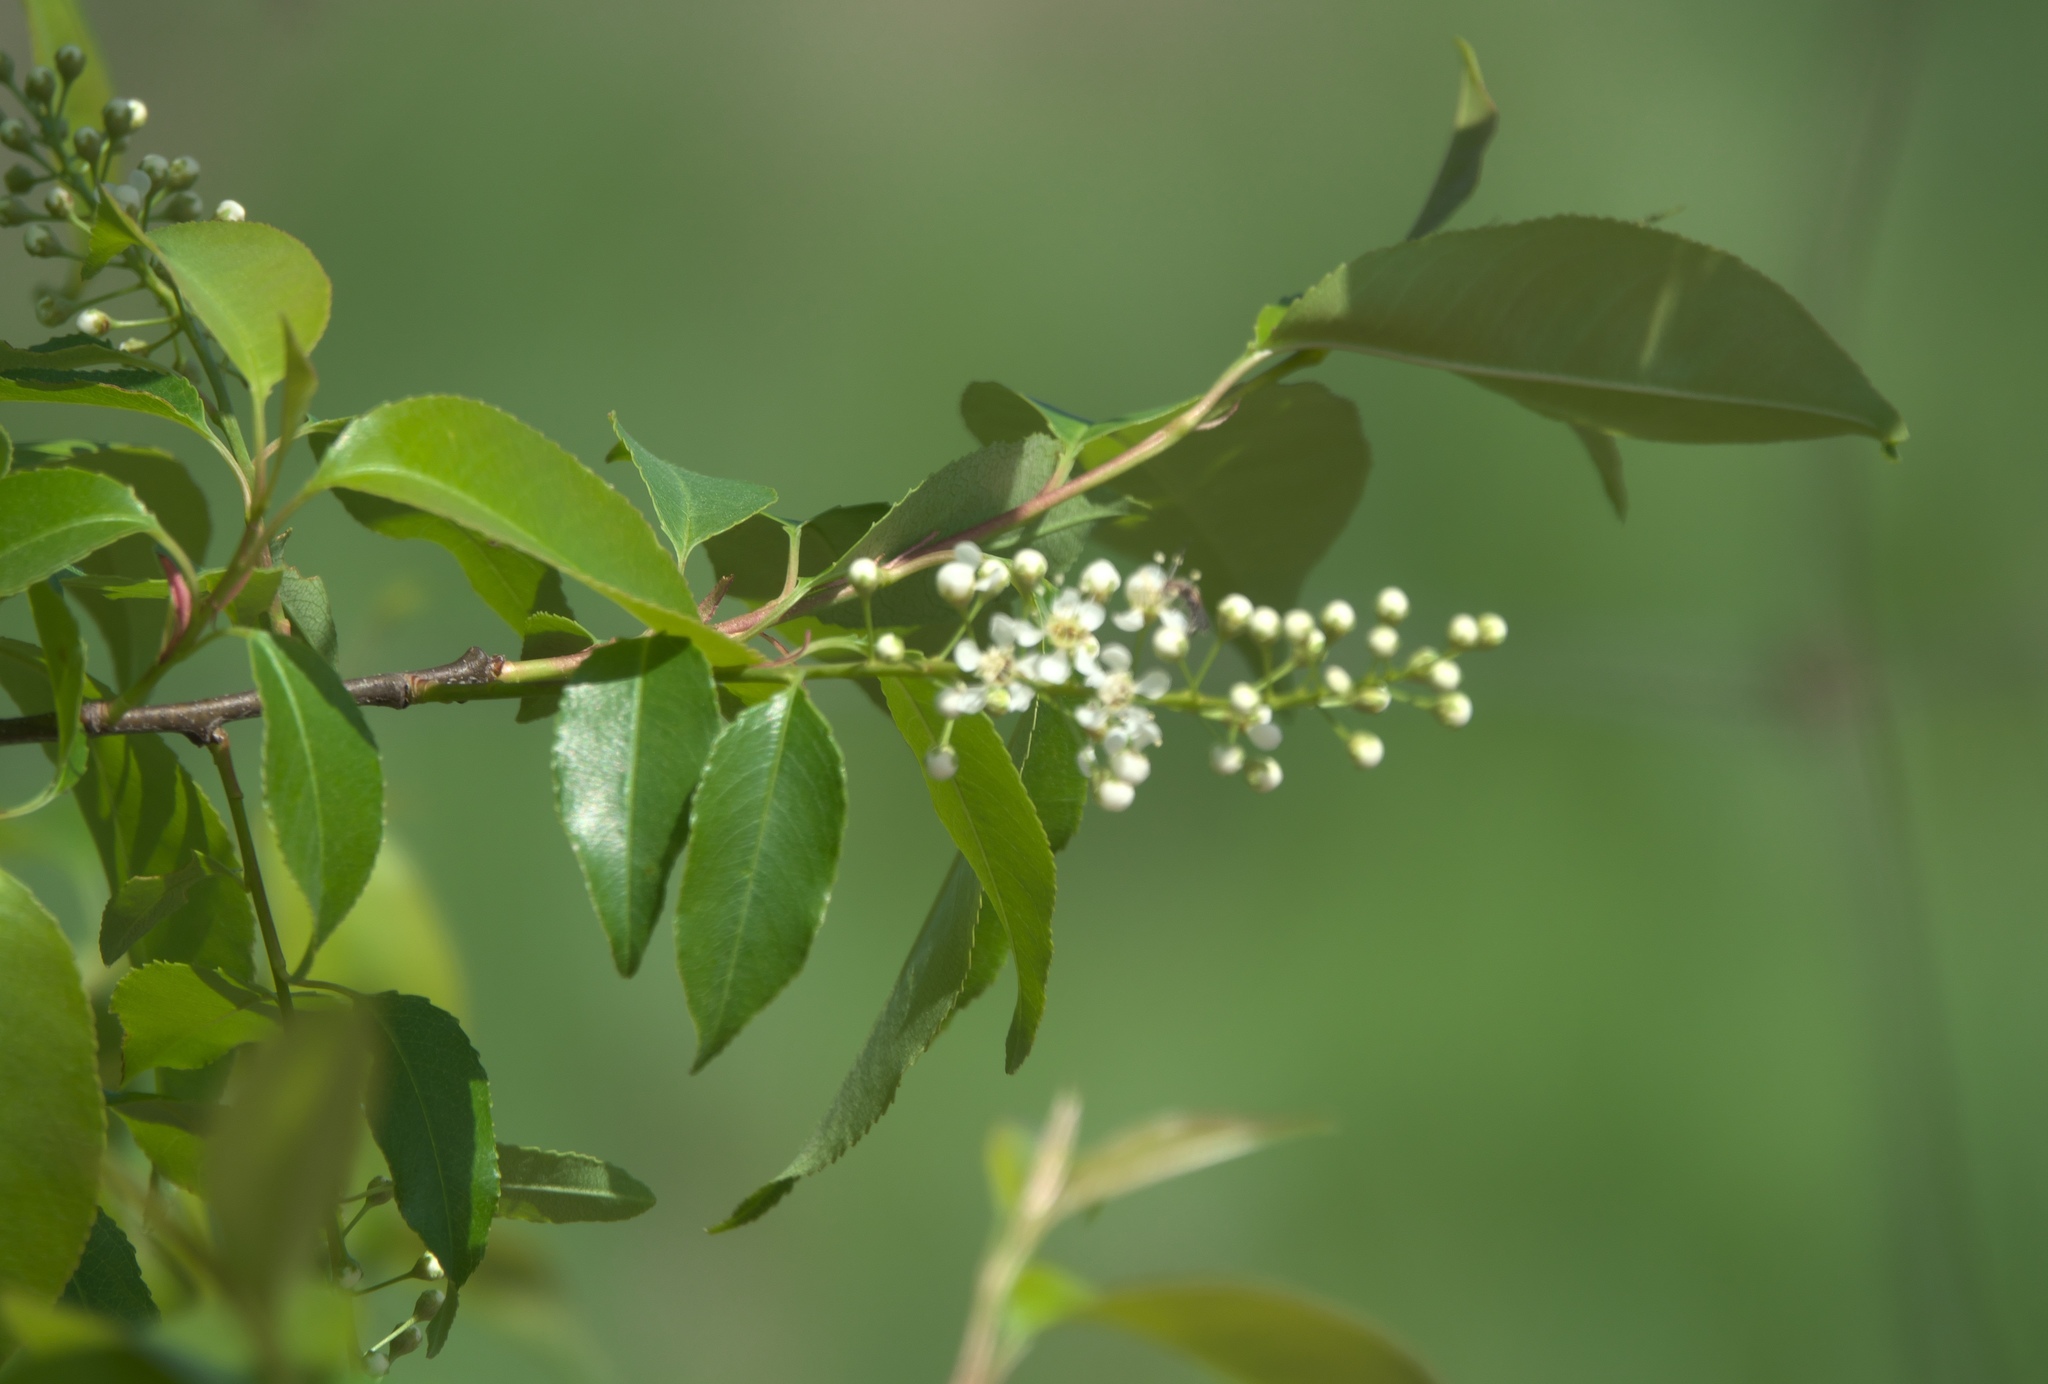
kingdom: Plantae
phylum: Tracheophyta
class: Magnoliopsida
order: Rosales
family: Rosaceae
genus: Prunus
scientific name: Prunus serotina
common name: Black cherry
